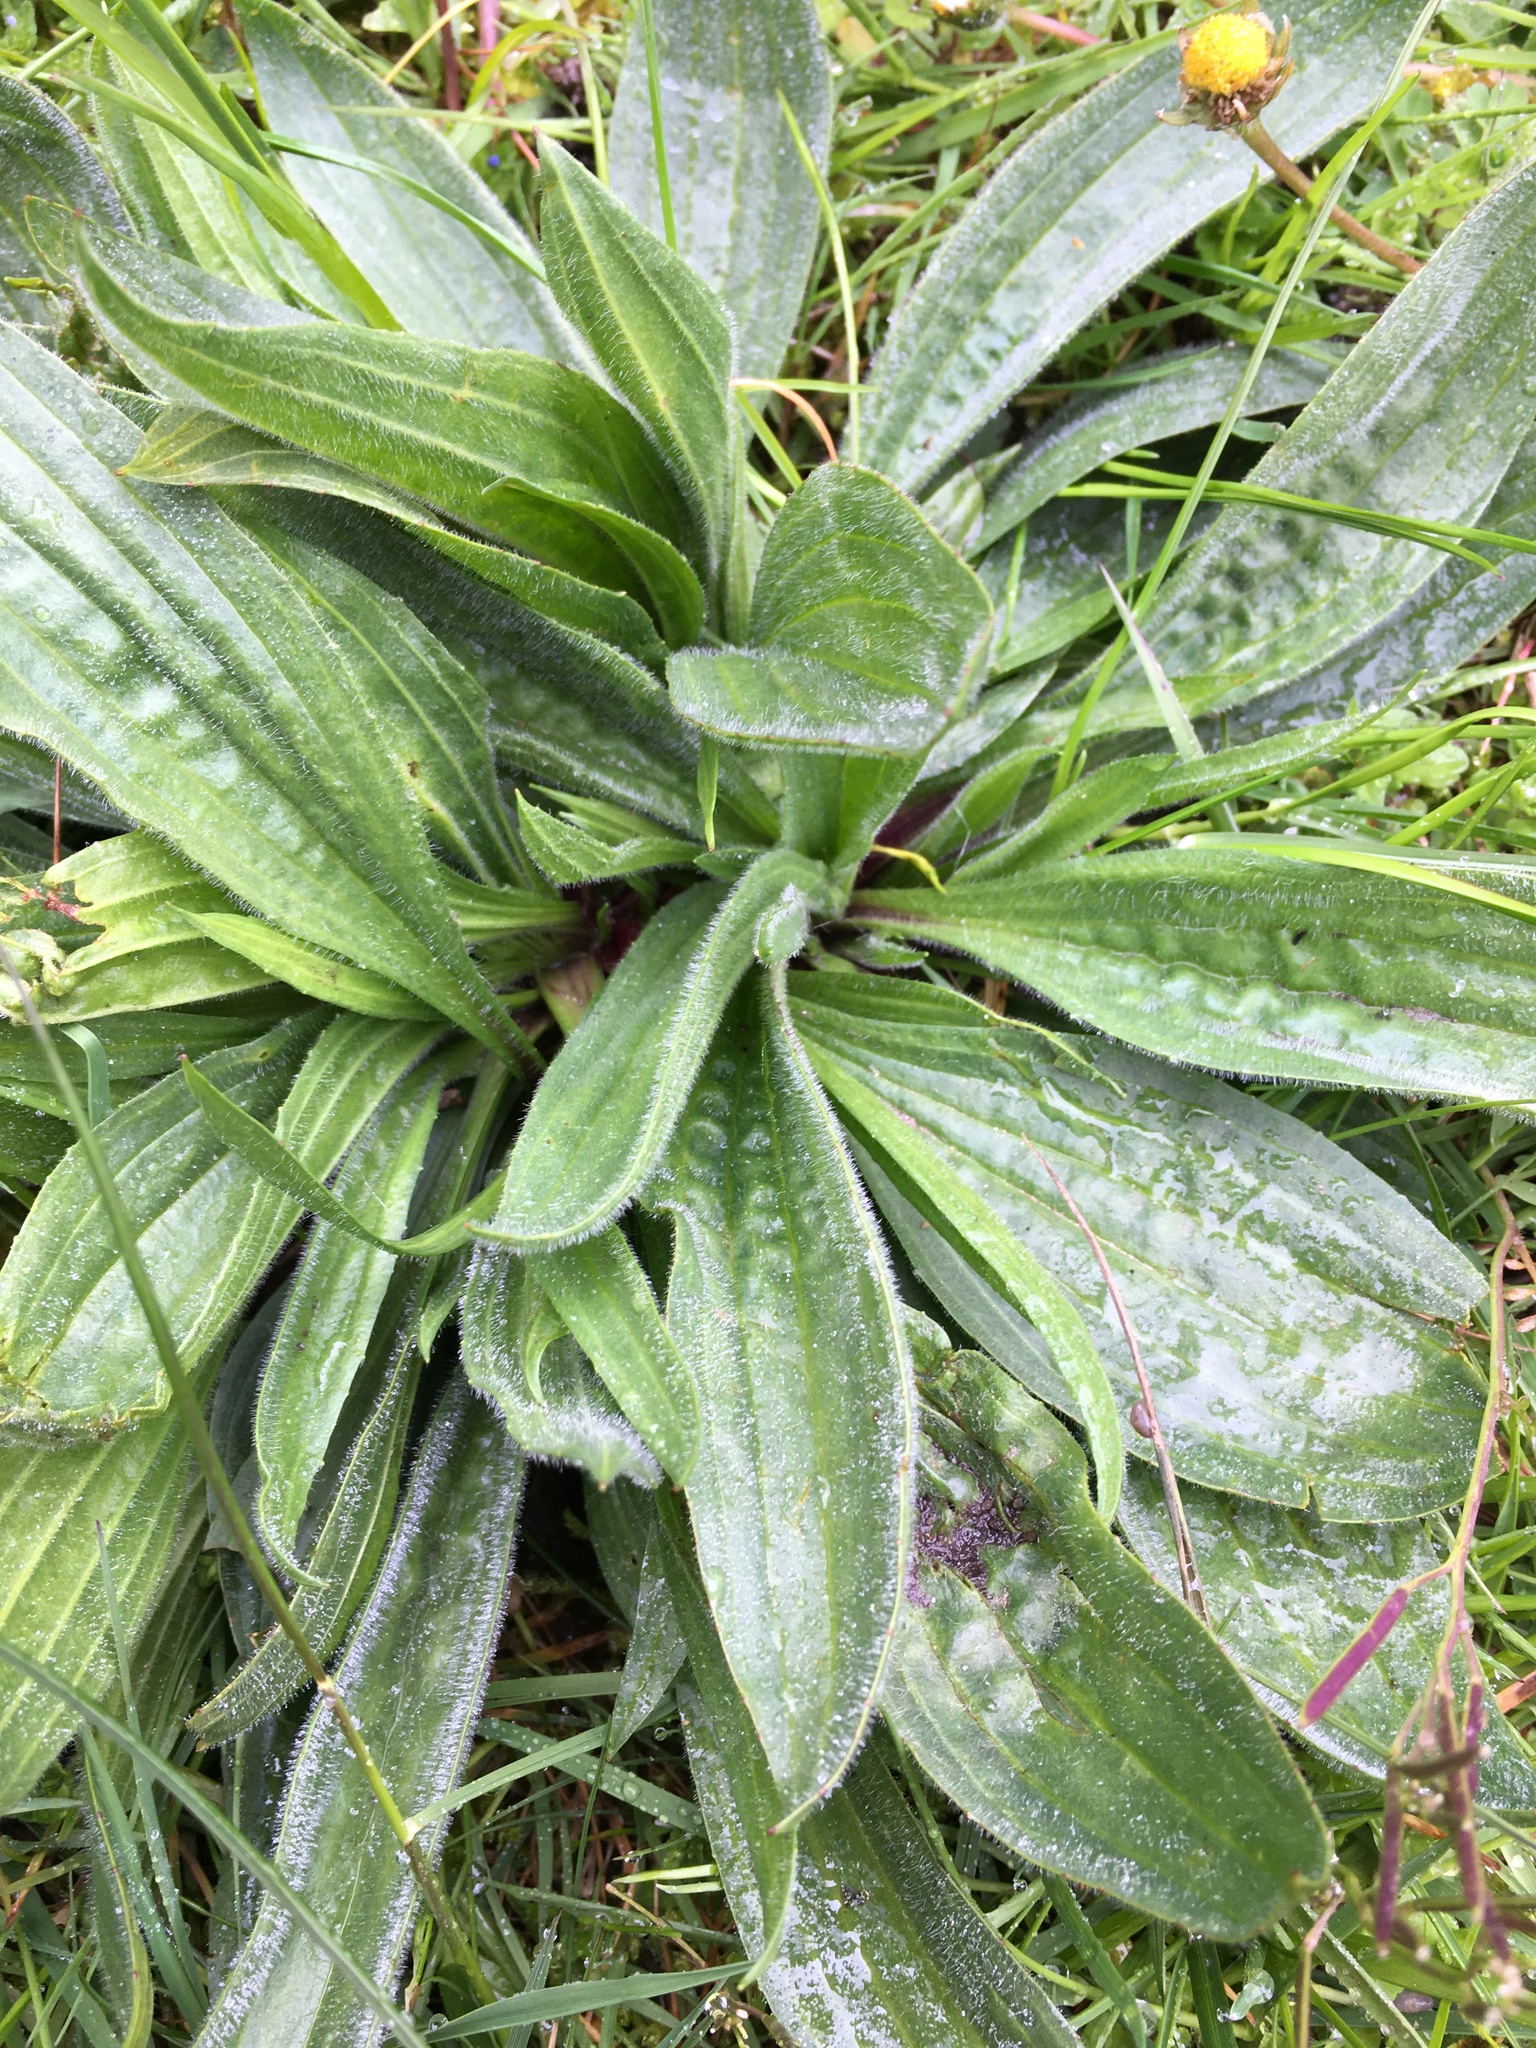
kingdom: Plantae
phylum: Tracheophyta
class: Magnoliopsida
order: Lamiales
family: Plantaginaceae
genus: Plantago
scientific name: Plantago lanceolata
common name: Ribwort plantain
